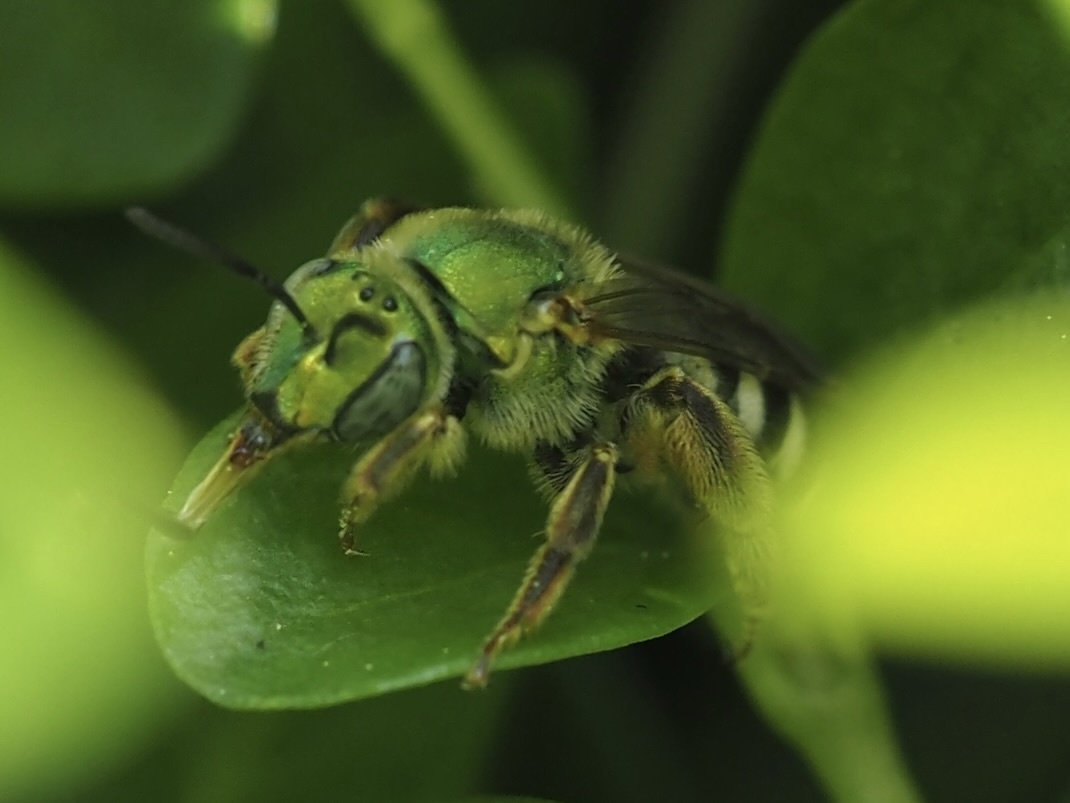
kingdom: Animalia
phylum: Arthropoda
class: Insecta
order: Hymenoptera
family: Halictidae
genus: Agapostemon
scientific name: Agapostemon virescens
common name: Bicolored striped sweat bee
